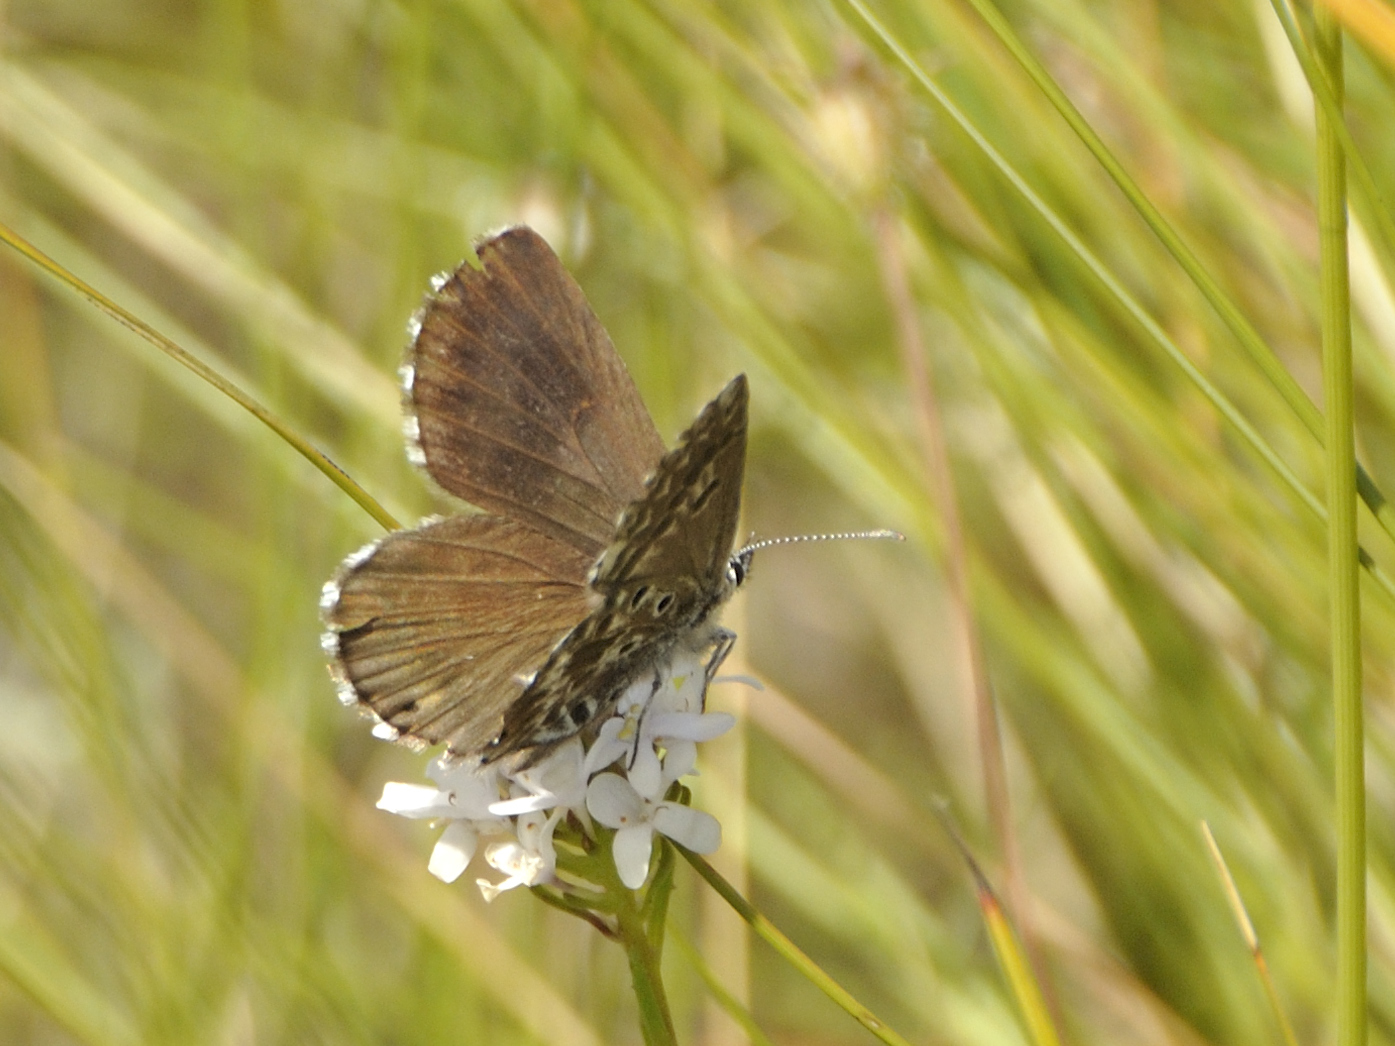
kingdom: Animalia
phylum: Arthropoda
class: Insecta
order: Lepidoptera
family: Lycaenidae
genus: Lepidochrysops
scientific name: Lepidochrysops robertsoni
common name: Robertson's blue
